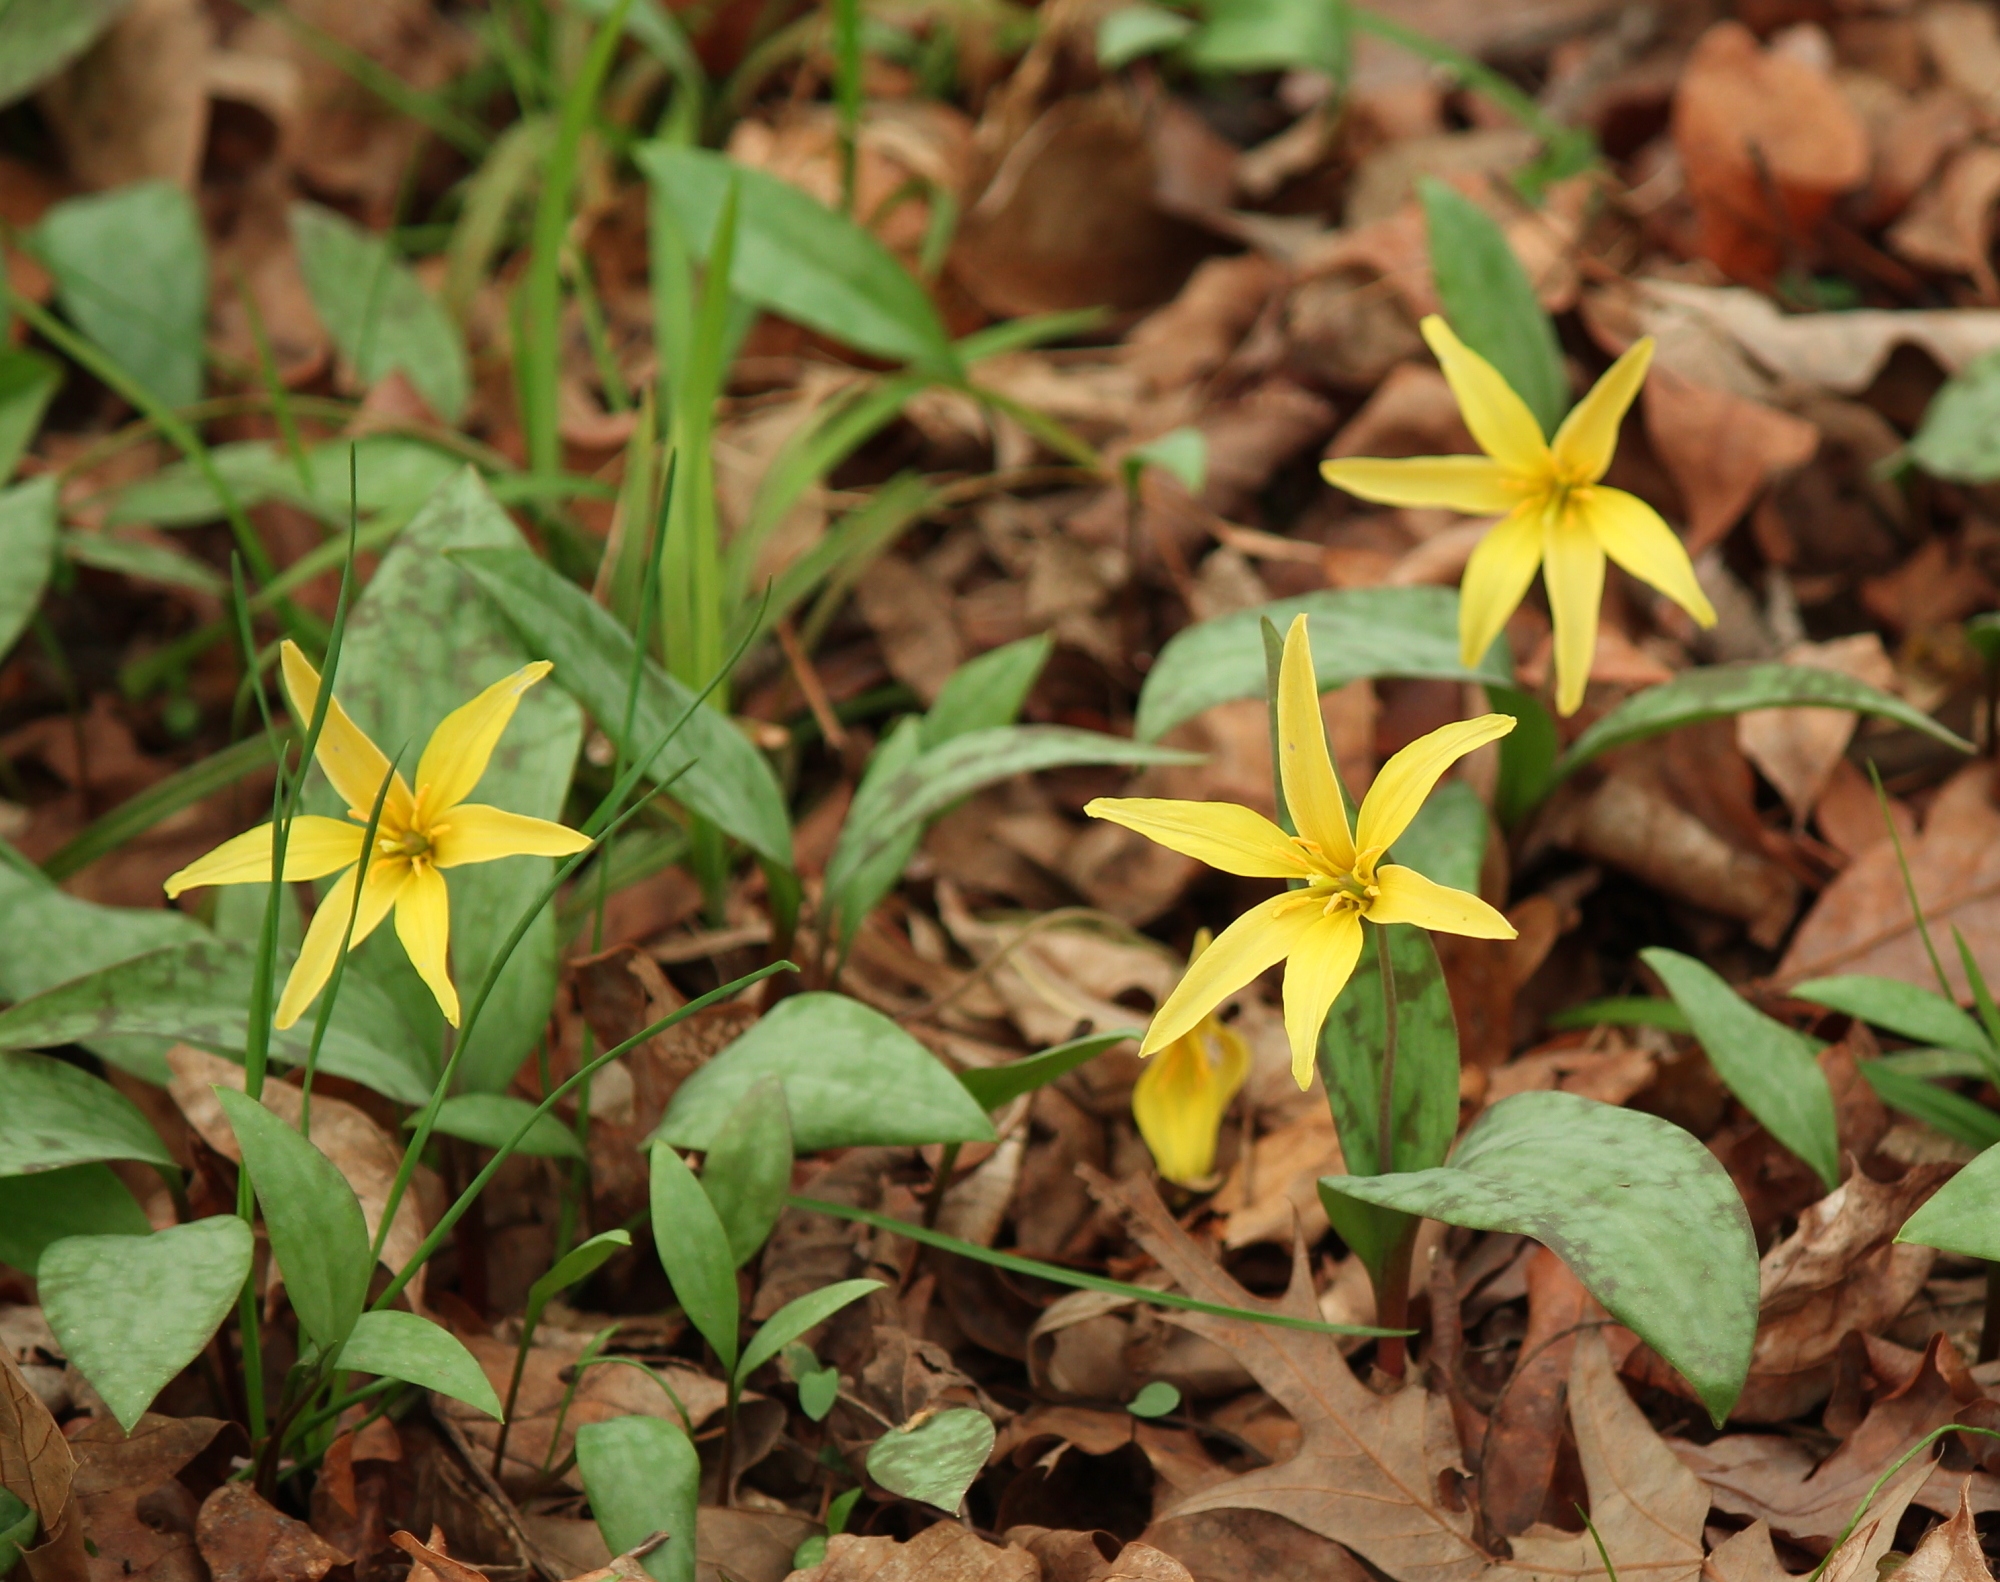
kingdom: Plantae
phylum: Tracheophyta
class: Liliopsida
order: Liliales
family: Liliaceae
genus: Erythronium
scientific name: Erythronium rostratum
